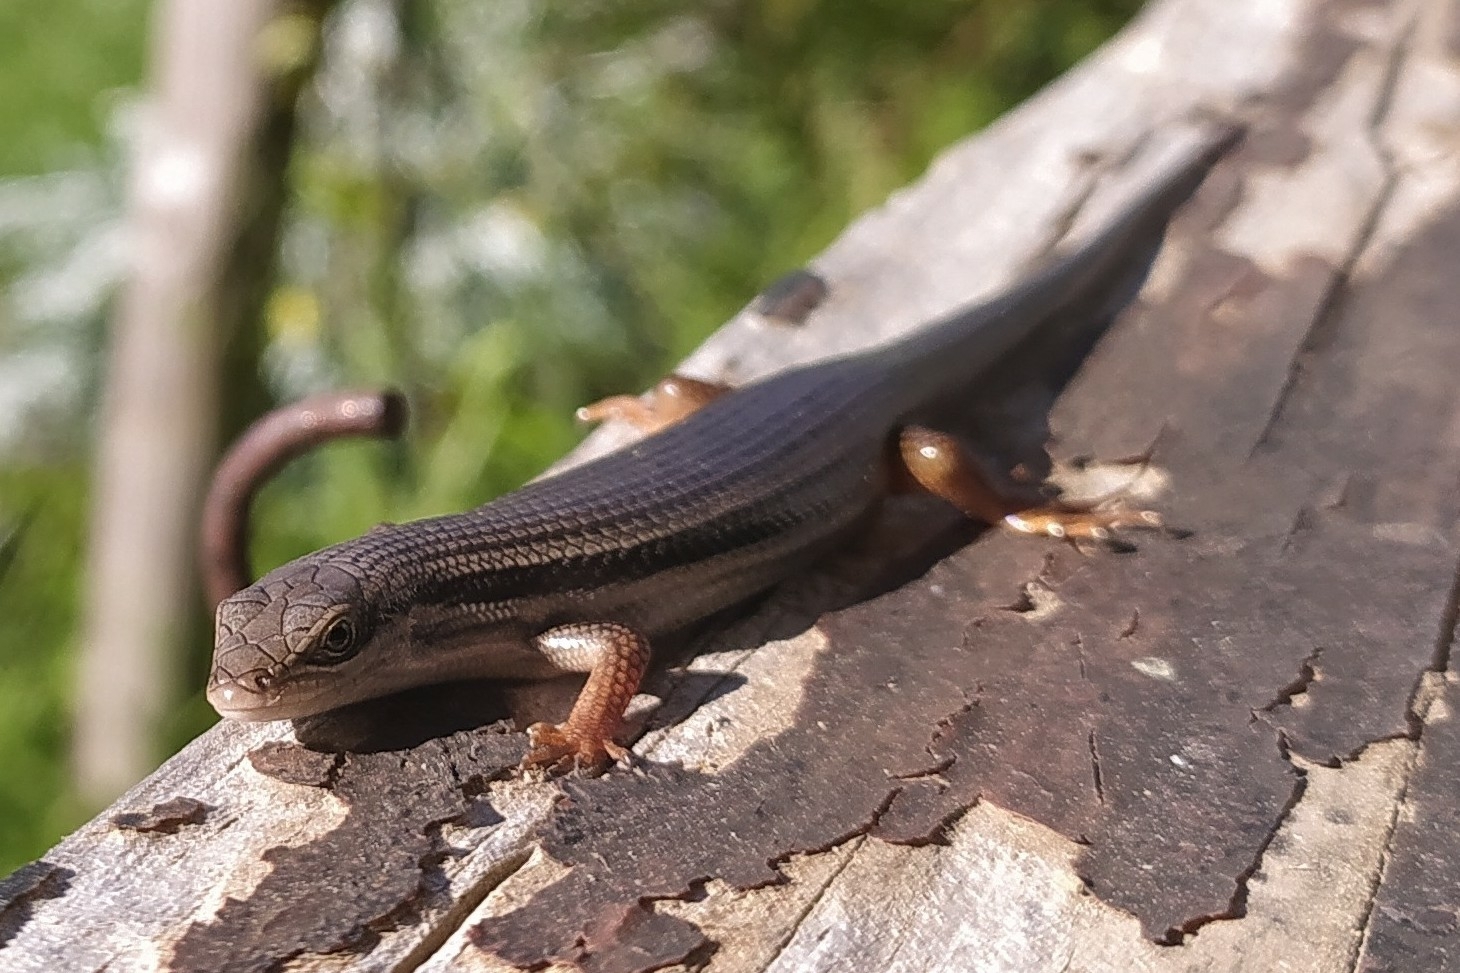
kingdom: Animalia
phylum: Chordata
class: Squamata
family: Scincidae
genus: Trachylepis
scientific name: Trachylepis homalocephala
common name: Red-sided skink
